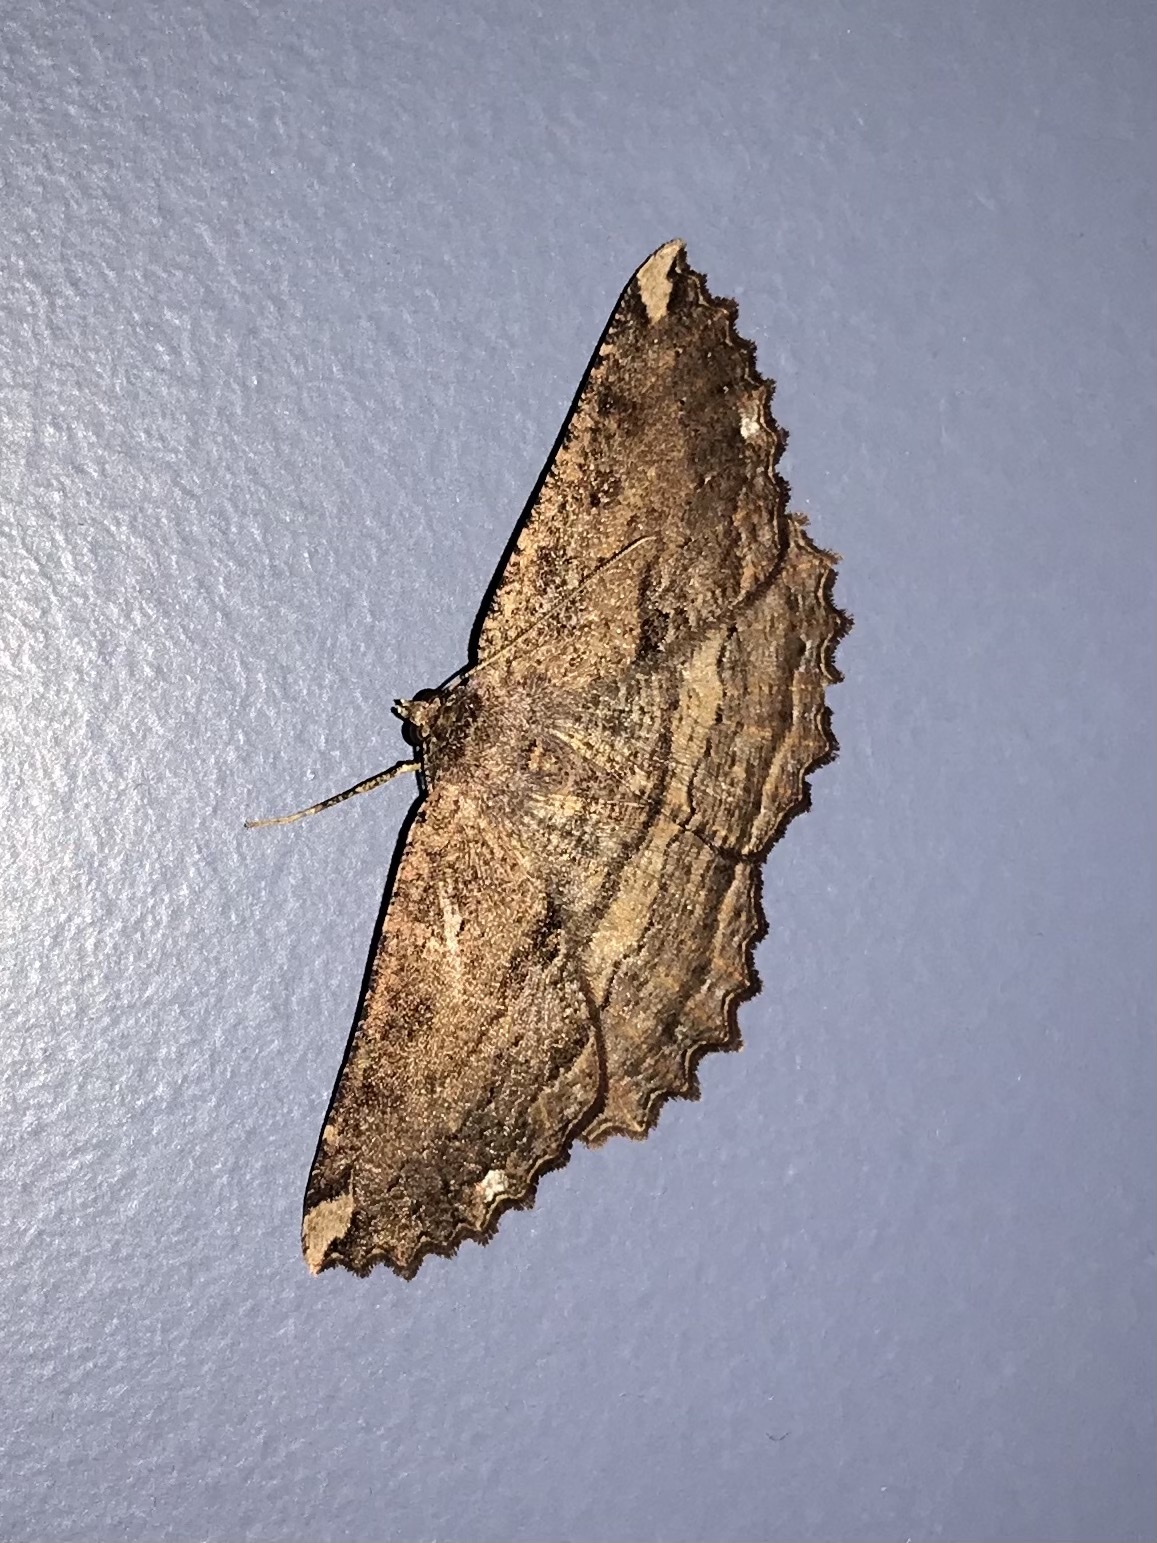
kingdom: Animalia
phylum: Arthropoda
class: Insecta
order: Lepidoptera
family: Geometridae
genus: Gellonia
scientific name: Gellonia dejectaria
